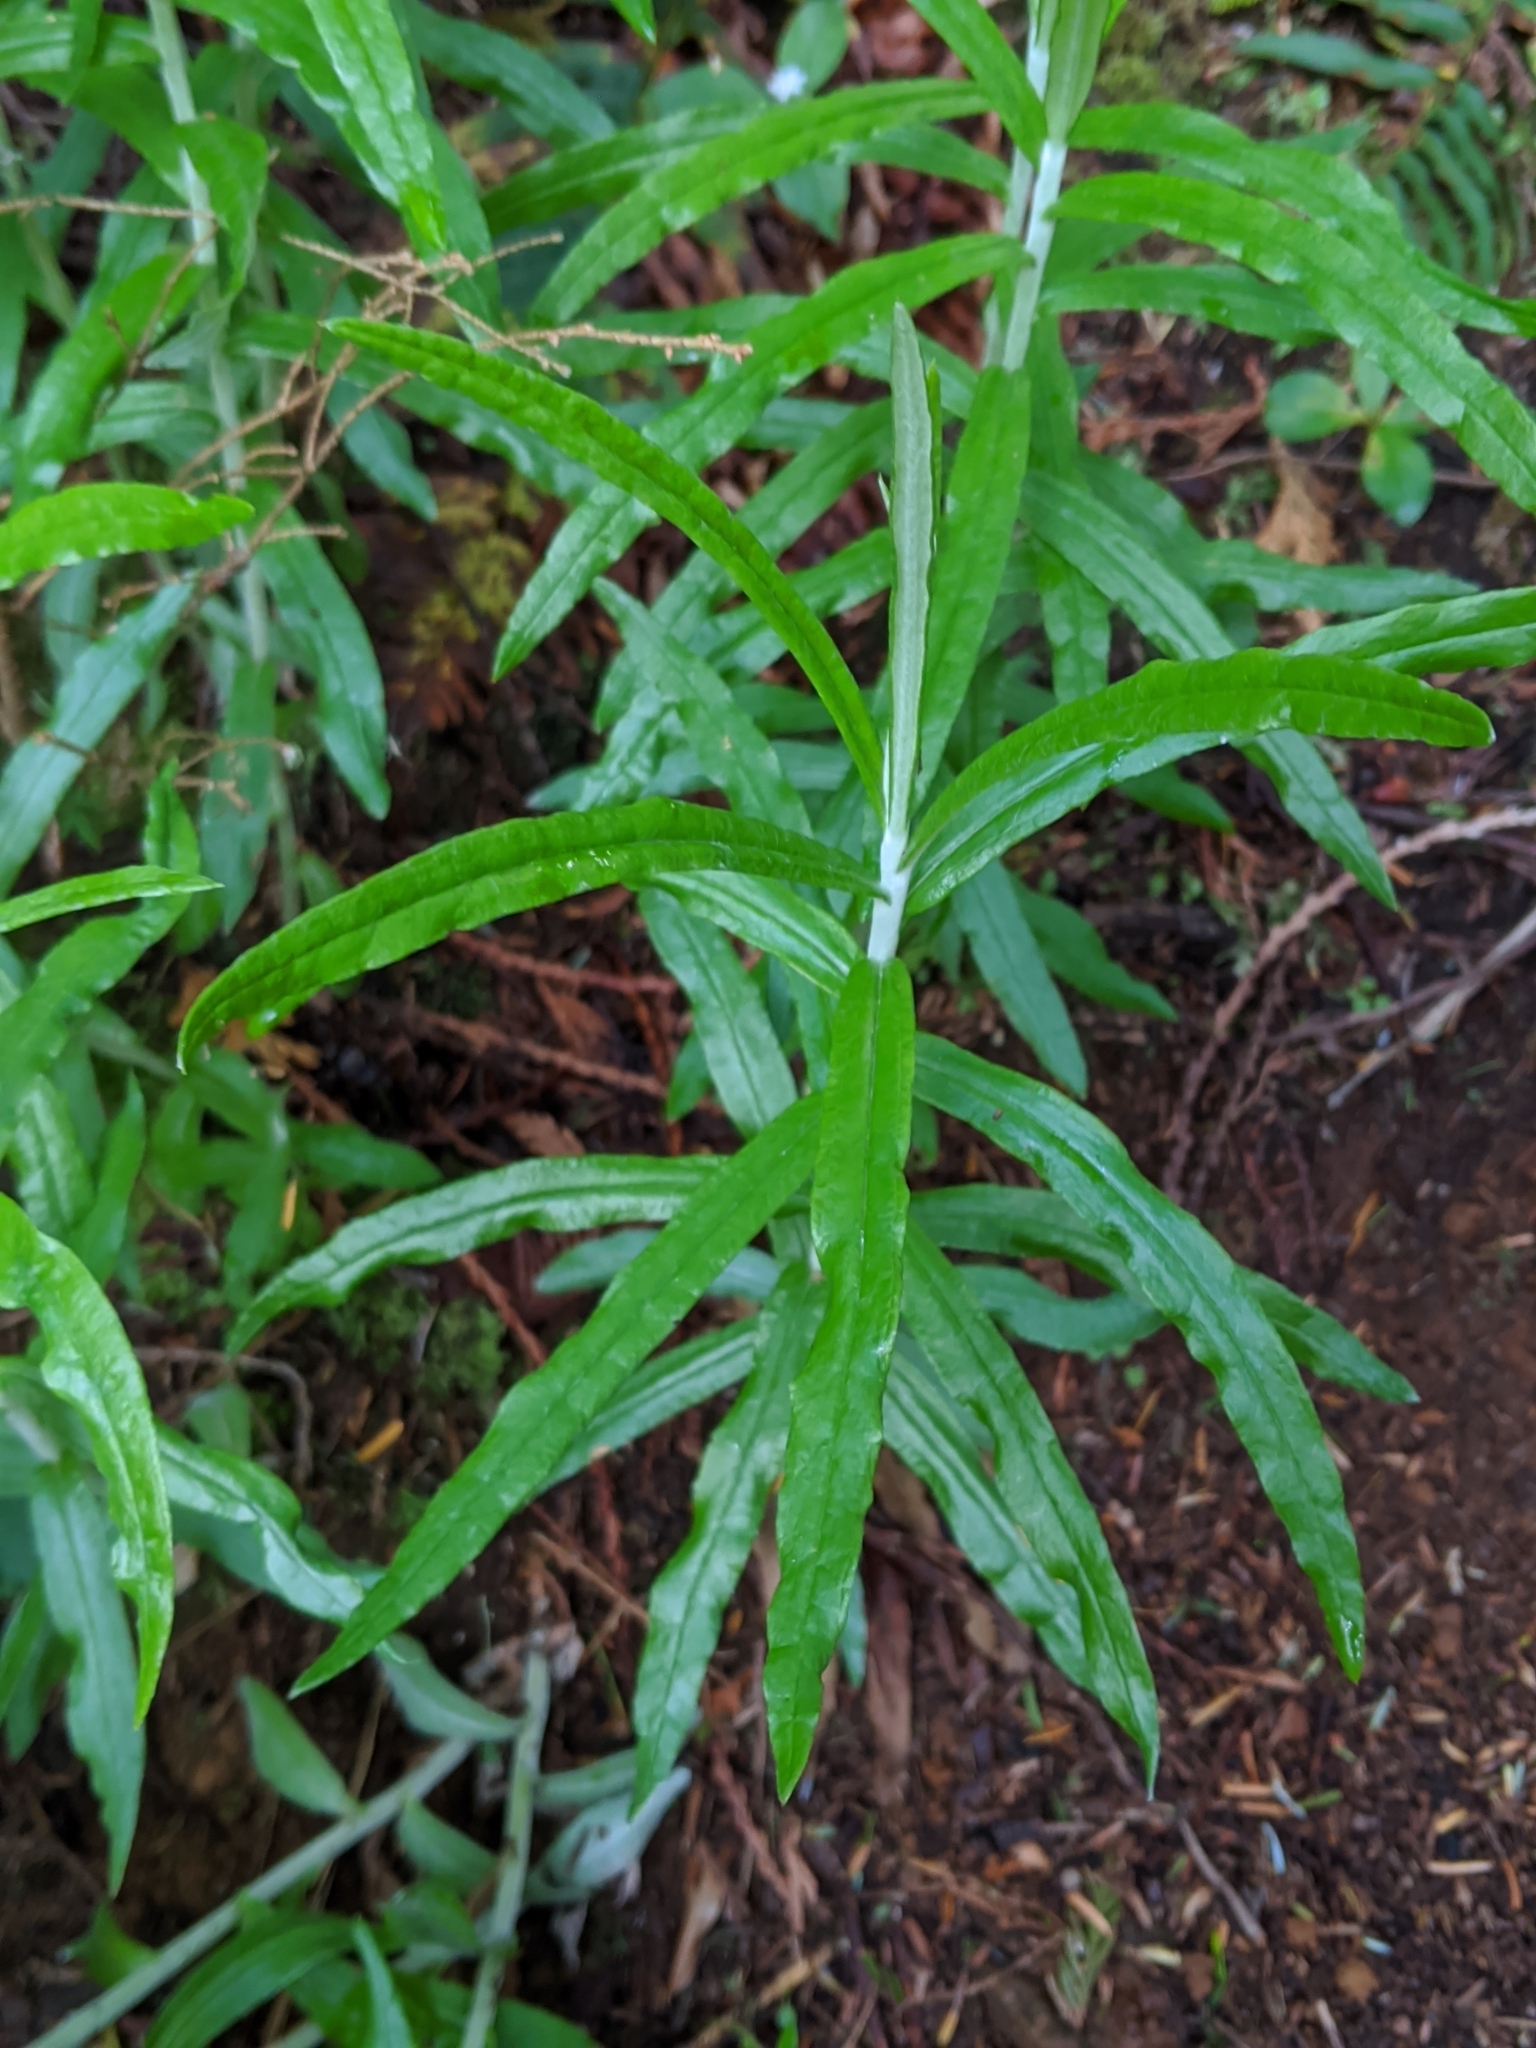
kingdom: Plantae
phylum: Tracheophyta
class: Magnoliopsida
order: Asterales
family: Asteraceae
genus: Anaphalis
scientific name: Anaphalis margaritacea
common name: Pearly everlasting
